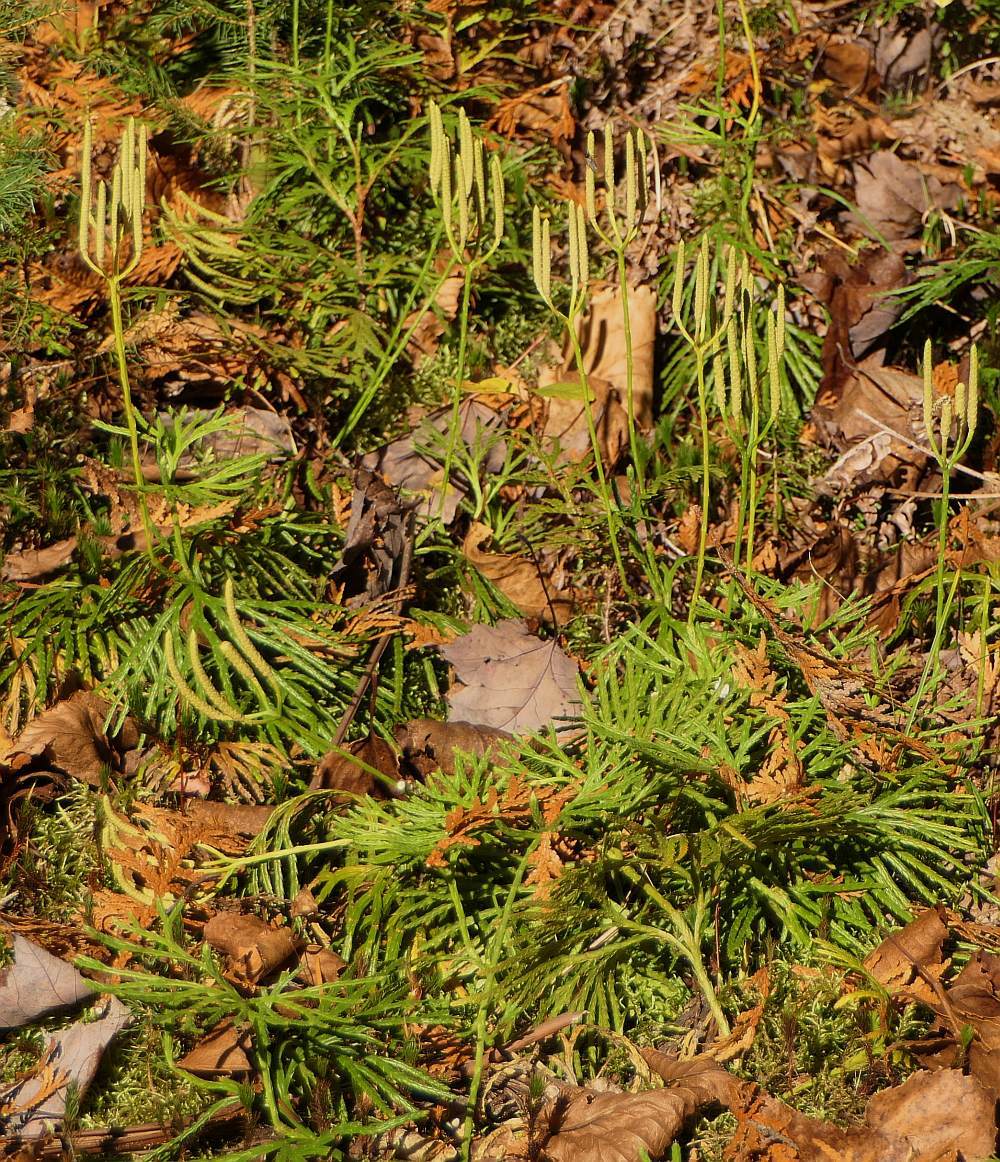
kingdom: Plantae
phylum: Tracheophyta
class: Lycopodiopsida
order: Lycopodiales
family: Lycopodiaceae
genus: Diphasiastrum
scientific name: Diphasiastrum digitatum
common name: Southern running-pine
